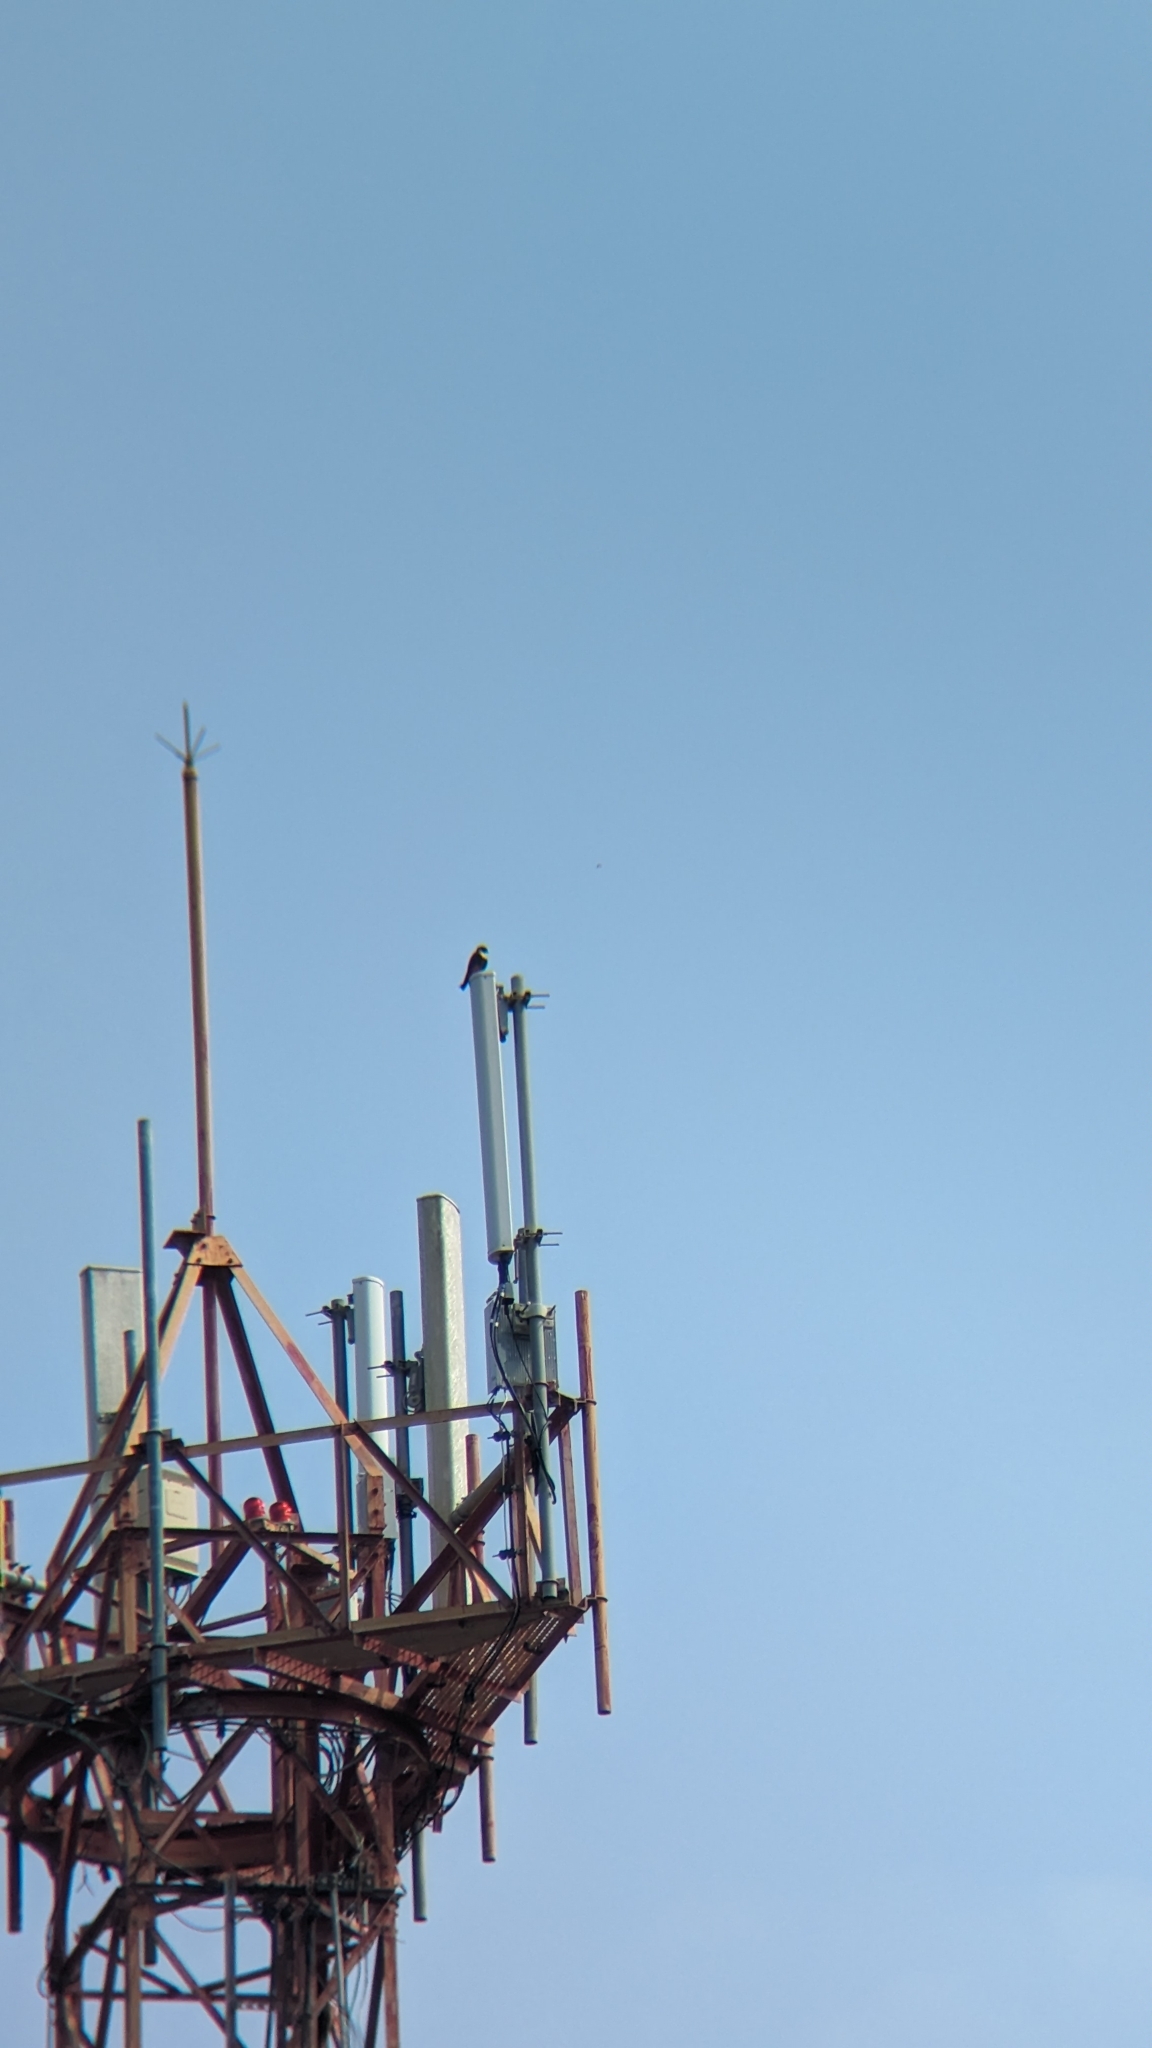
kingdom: Animalia
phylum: Chordata
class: Aves
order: Falconiformes
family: Falconidae
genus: Falco
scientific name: Falco rufigularis
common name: Bat falcon
